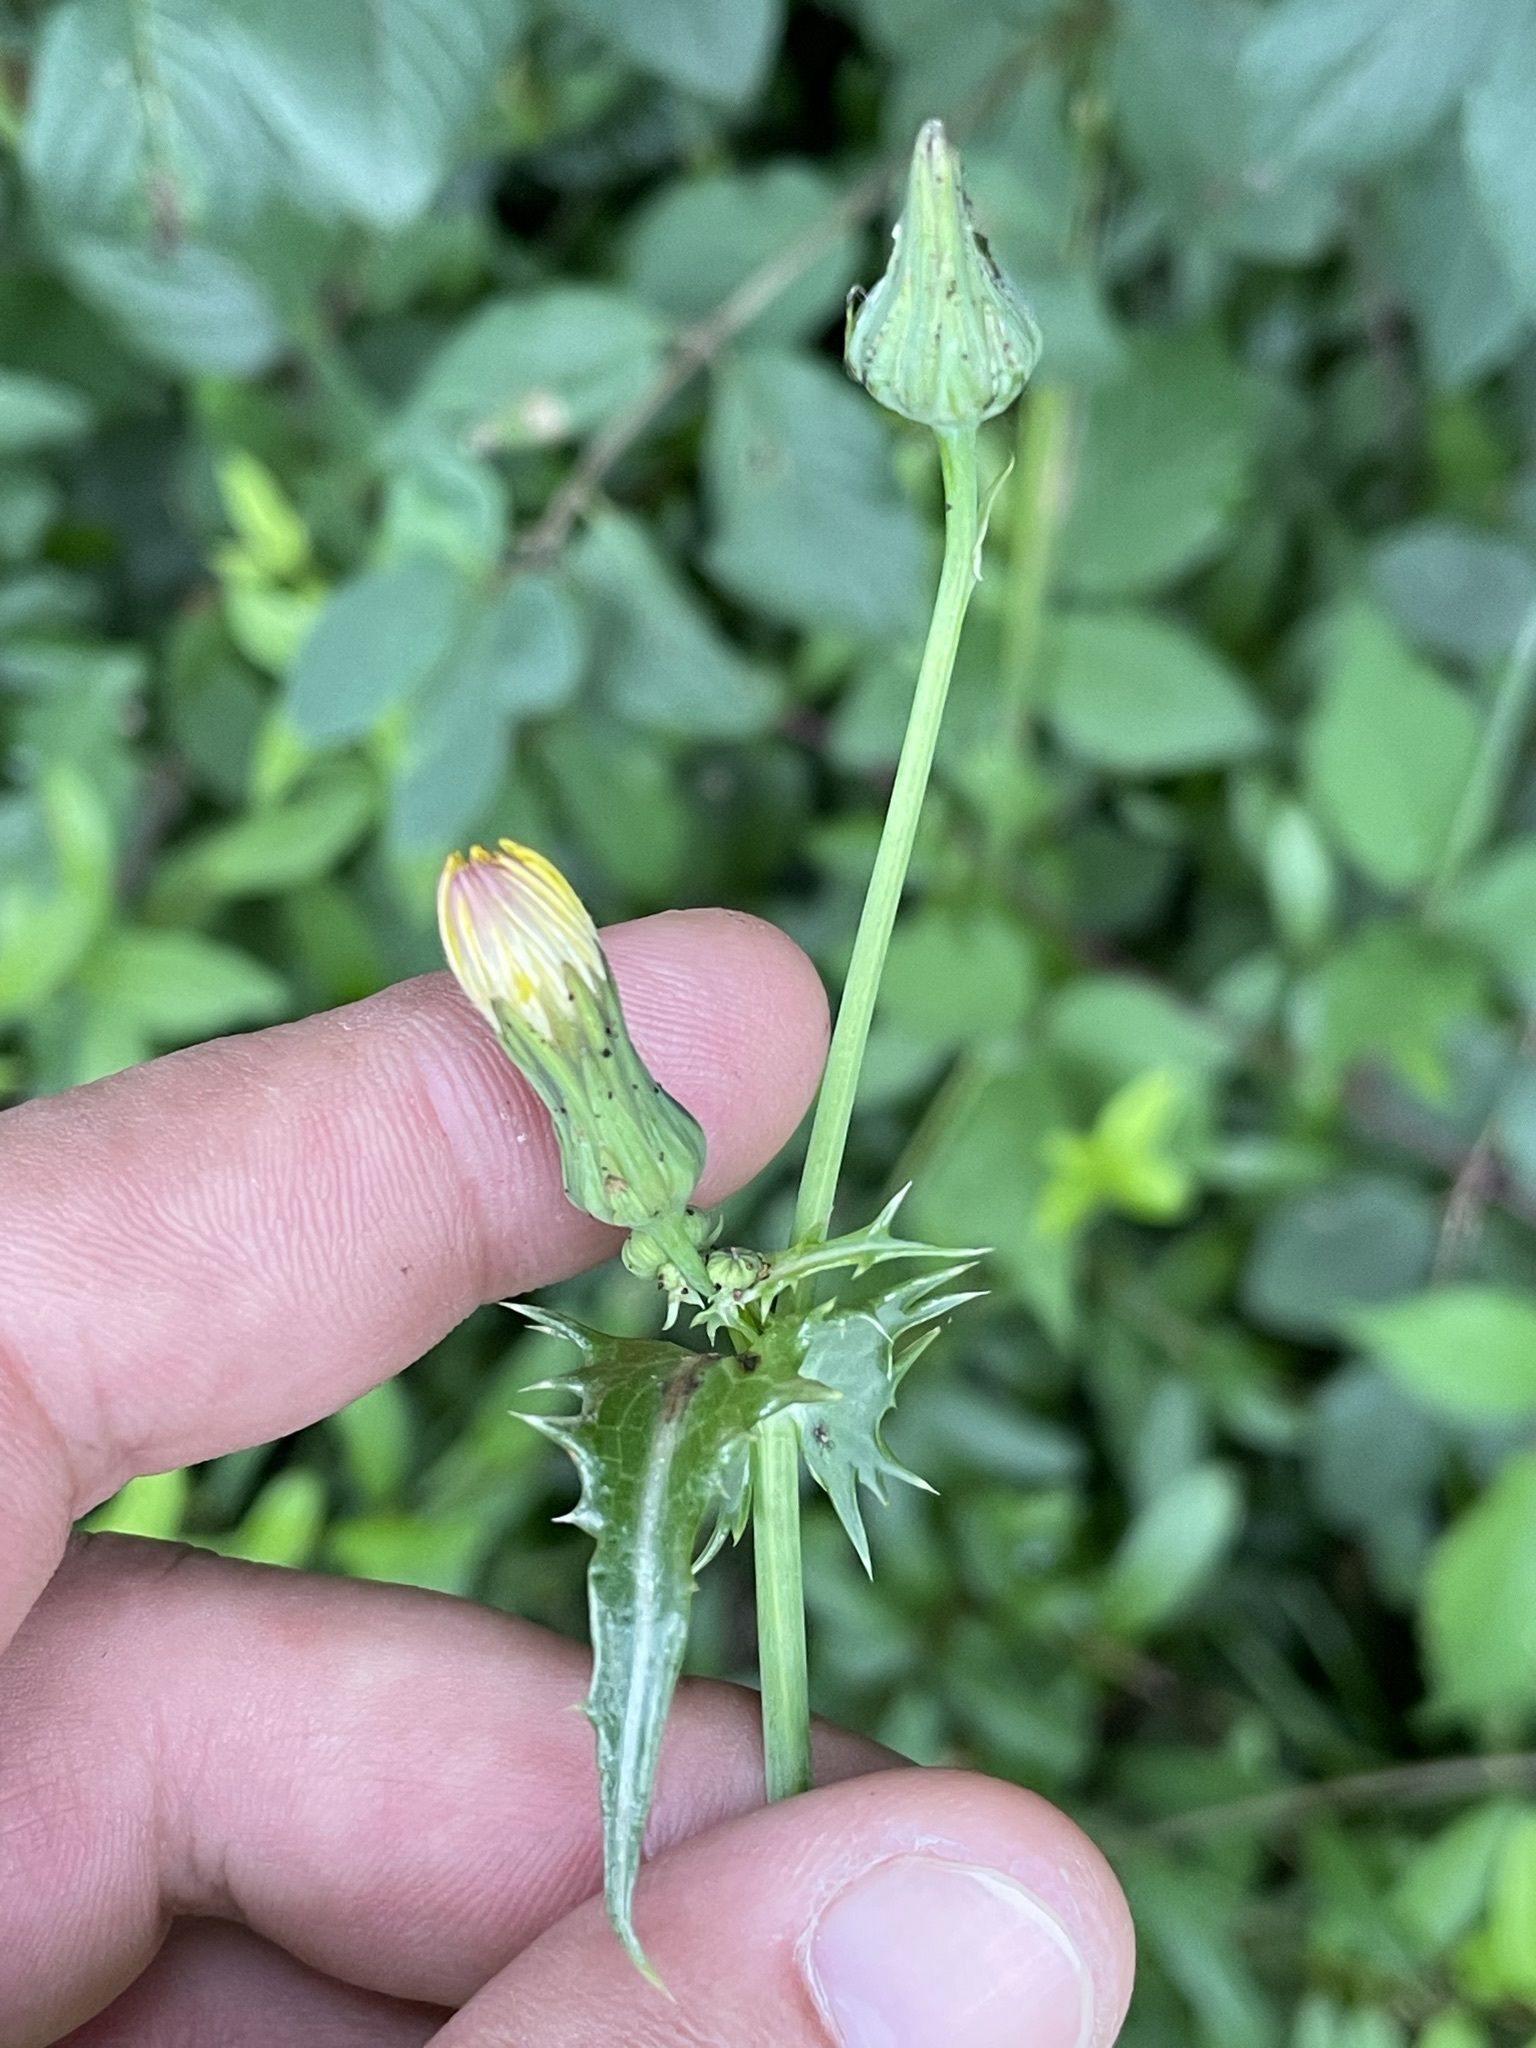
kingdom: Plantae
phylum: Tracheophyta
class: Magnoliopsida
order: Asterales
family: Asteraceae
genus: Sonchus
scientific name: Sonchus asper
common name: Prickly sow-thistle
